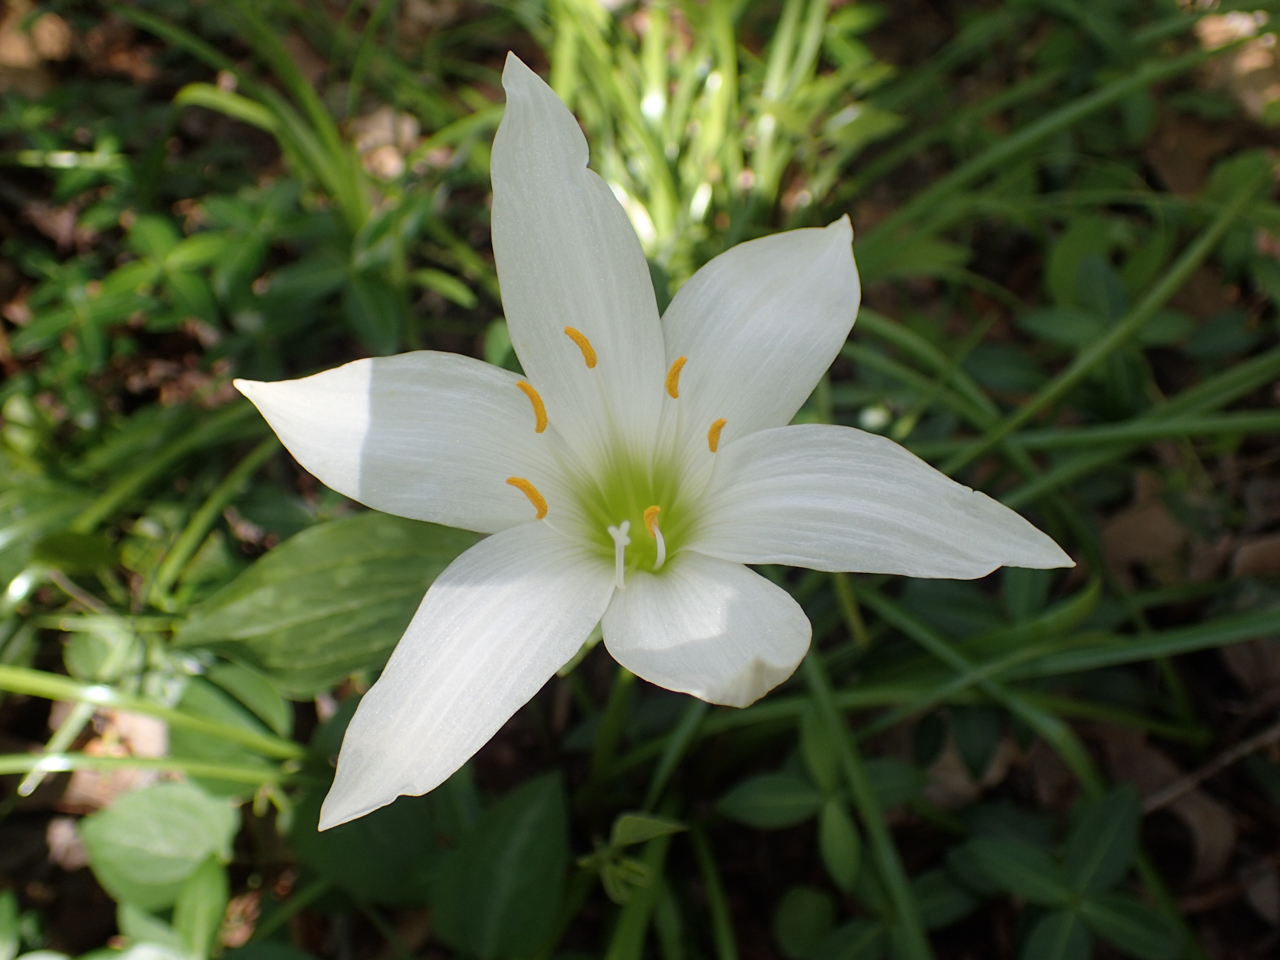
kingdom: Plantae
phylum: Tracheophyta
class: Liliopsida
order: Asparagales
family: Amaryllidaceae
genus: Zephyranthes
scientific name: Zephyranthes atamasco
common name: Atamasco lily
